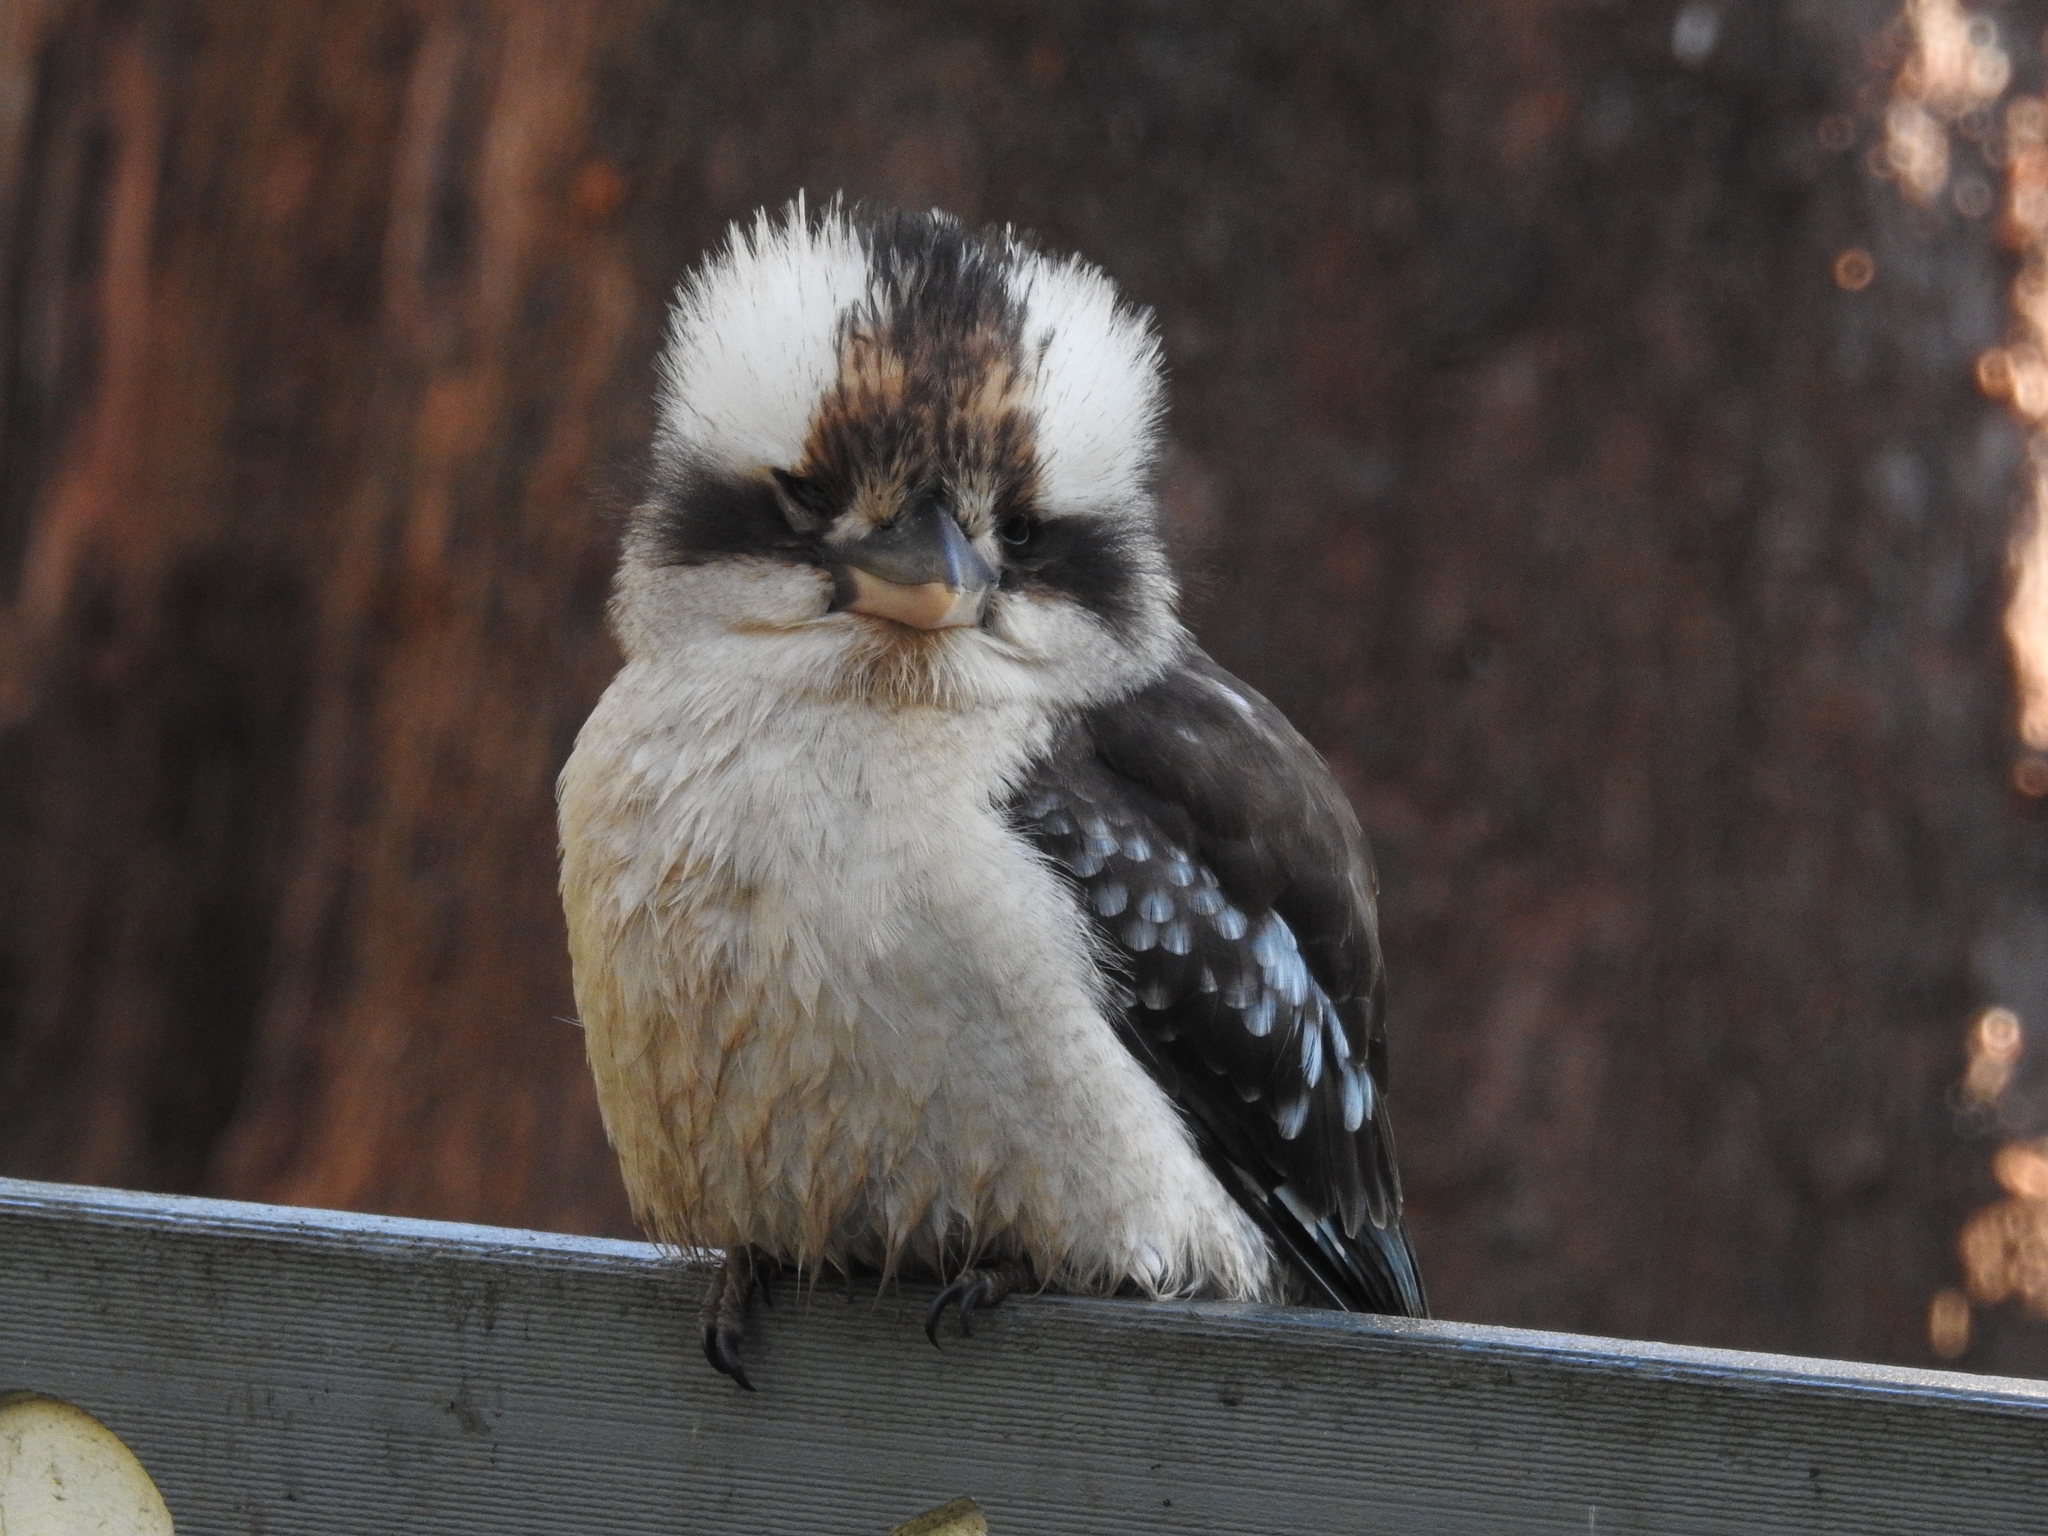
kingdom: Animalia
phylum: Chordata
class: Aves
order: Coraciiformes
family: Alcedinidae
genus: Dacelo
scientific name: Dacelo novaeguineae
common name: Laughing kookaburra
